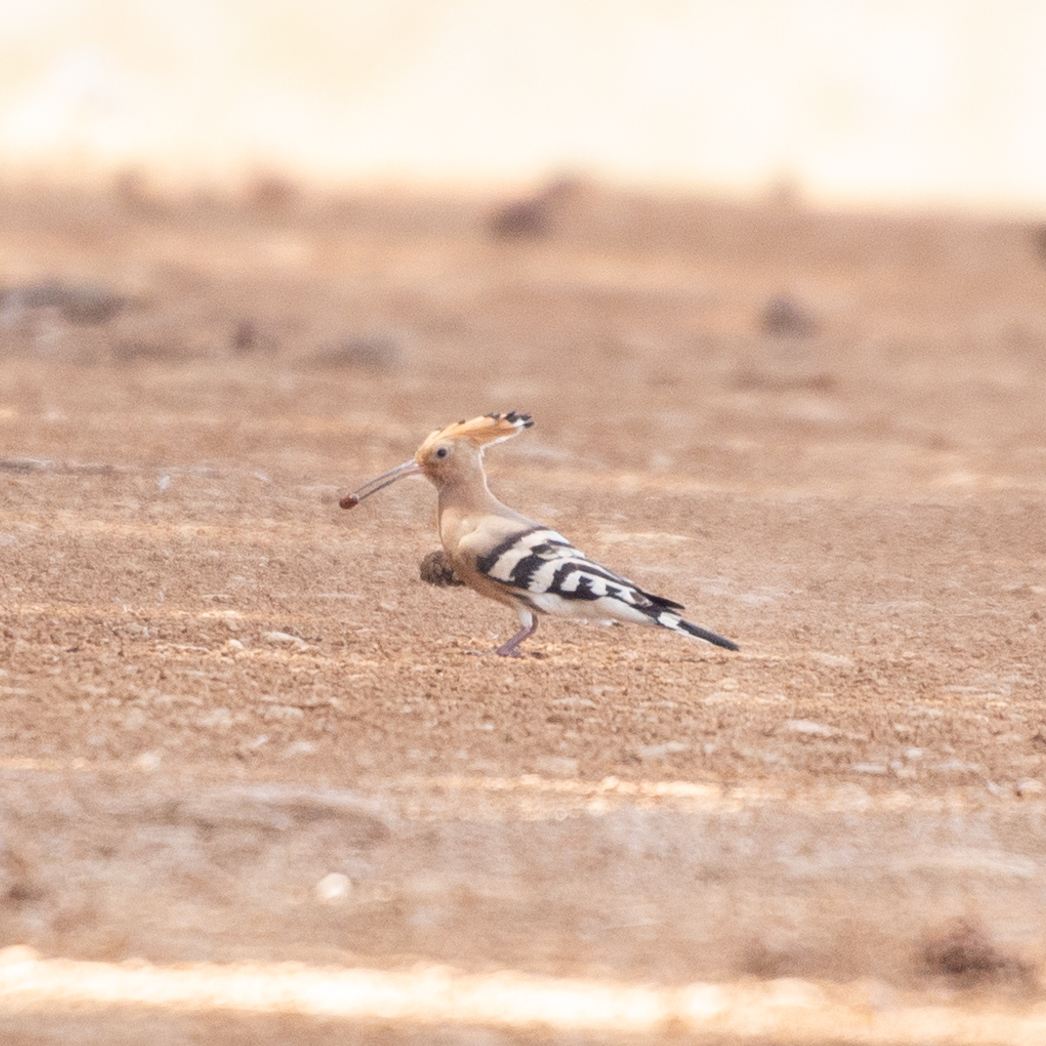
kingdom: Animalia
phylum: Chordata
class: Aves
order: Bucerotiformes
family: Upupidae
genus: Upupa
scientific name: Upupa epops
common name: Eurasian hoopoe
